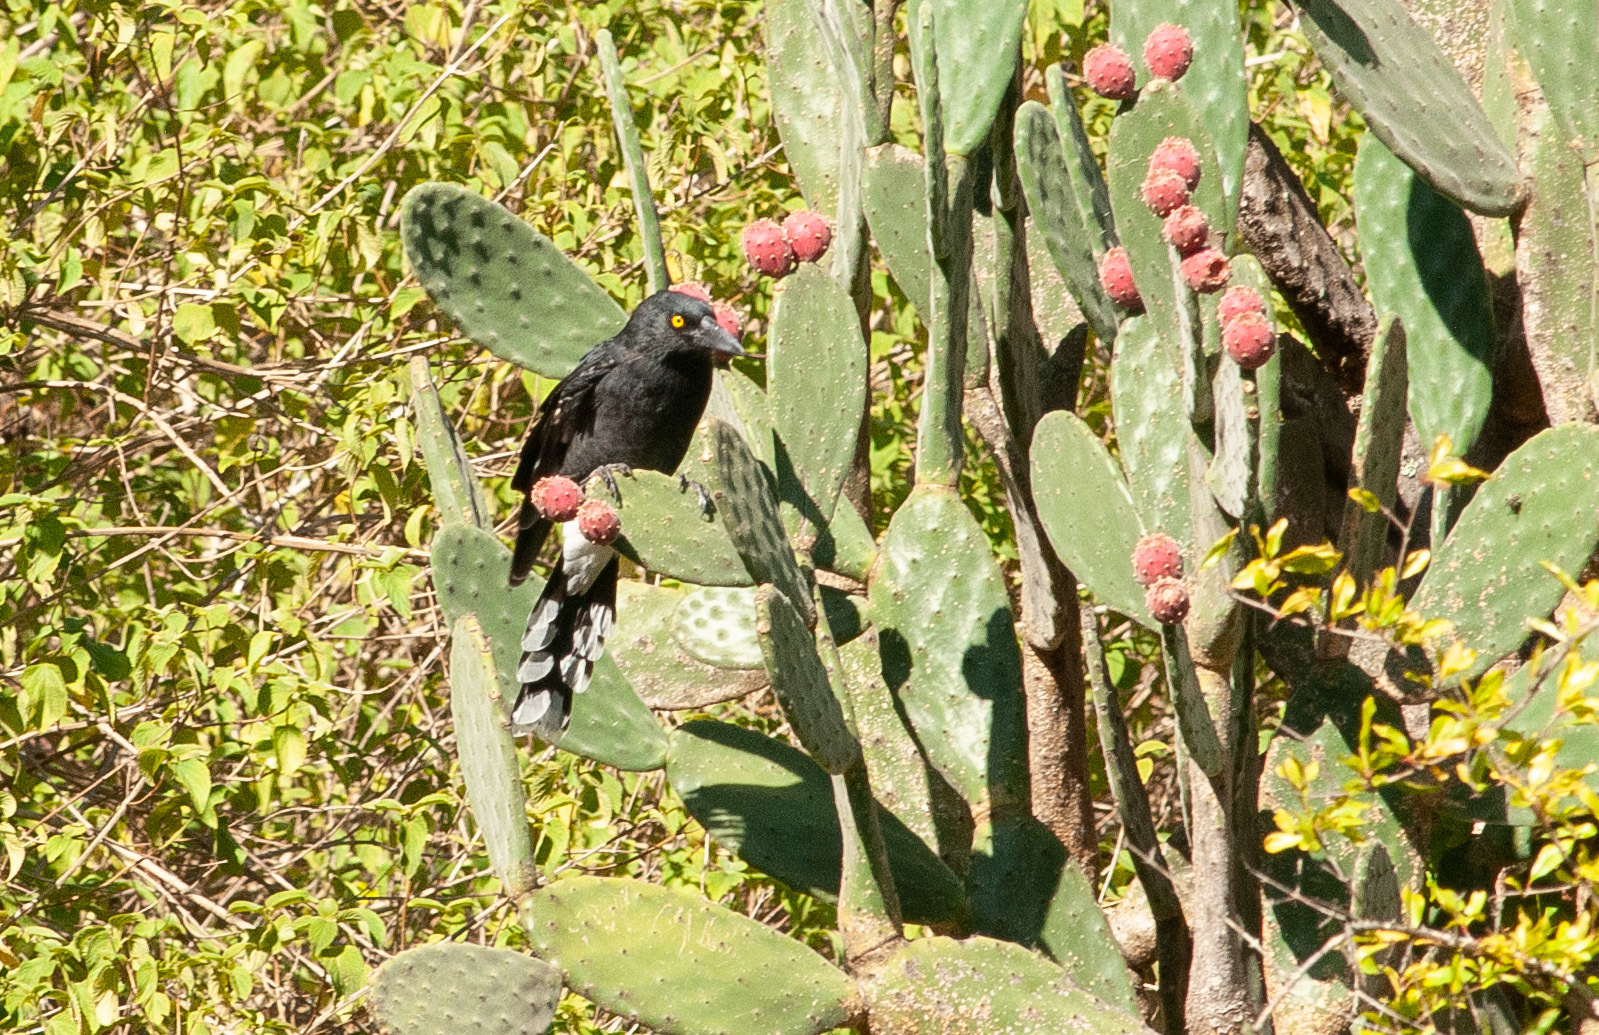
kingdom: Animalia
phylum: Chordata
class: Aves
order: Passeriformes
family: Cracticidae
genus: Strepera
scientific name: Strepera graculina
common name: Pied currawong
